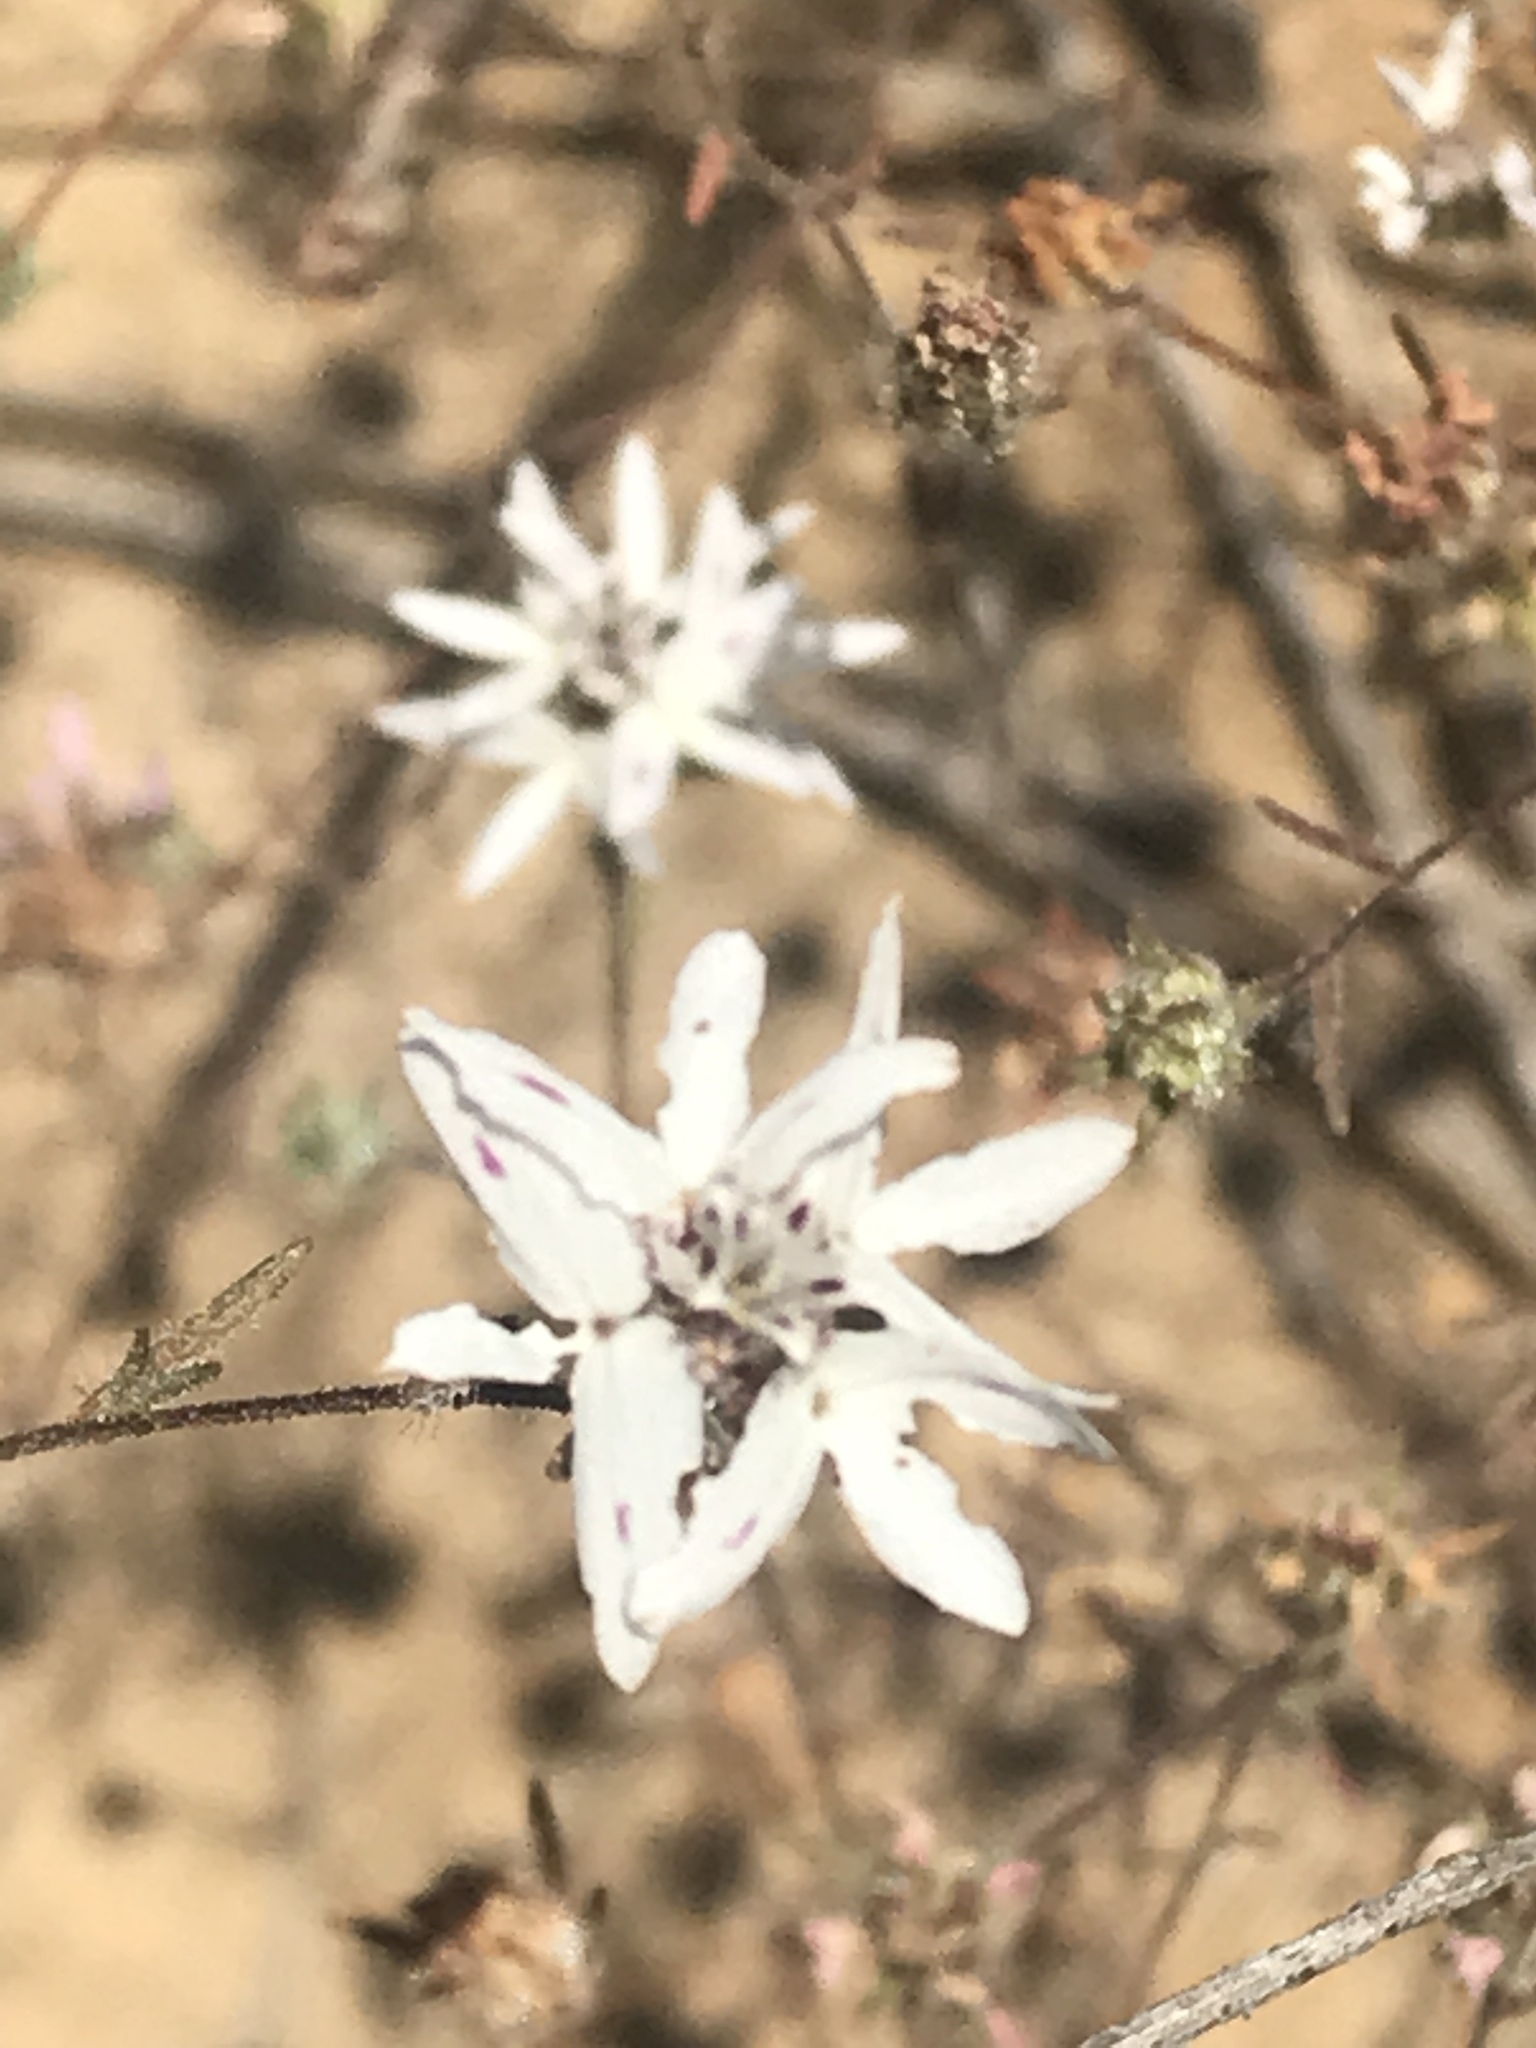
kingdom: Plantae
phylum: Tracheophyta
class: Magnoliopsida
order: Asterales
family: Asteraceae
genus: Osmadenia
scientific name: Osmadenia tenella
